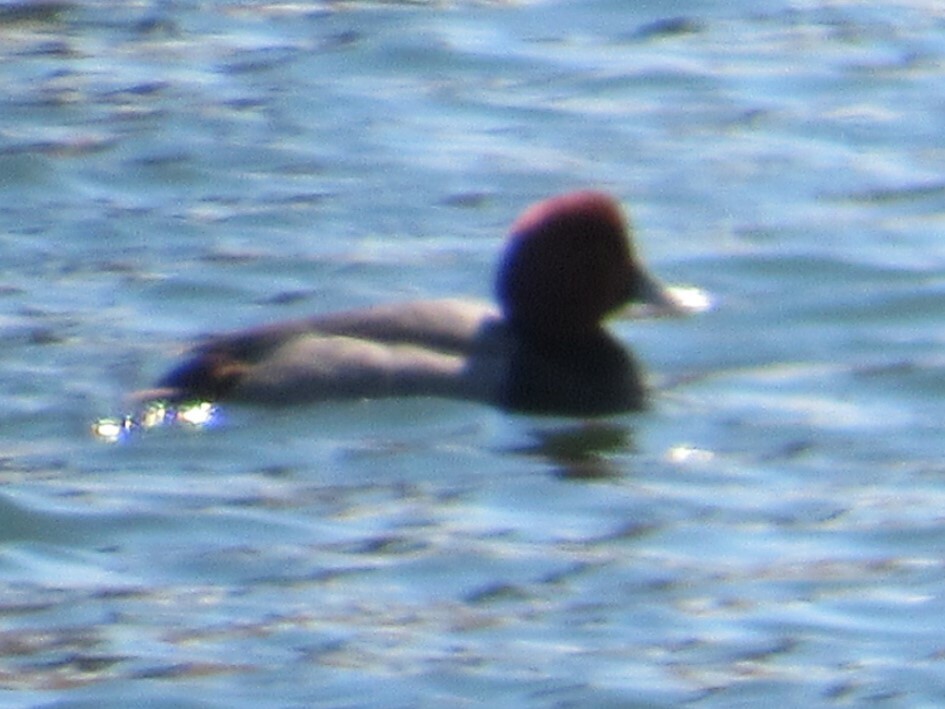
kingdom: Animalia
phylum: Chordata
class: Aves
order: Anseriformes
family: Anatidae
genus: Aythya
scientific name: Aythya americana
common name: Redhead
